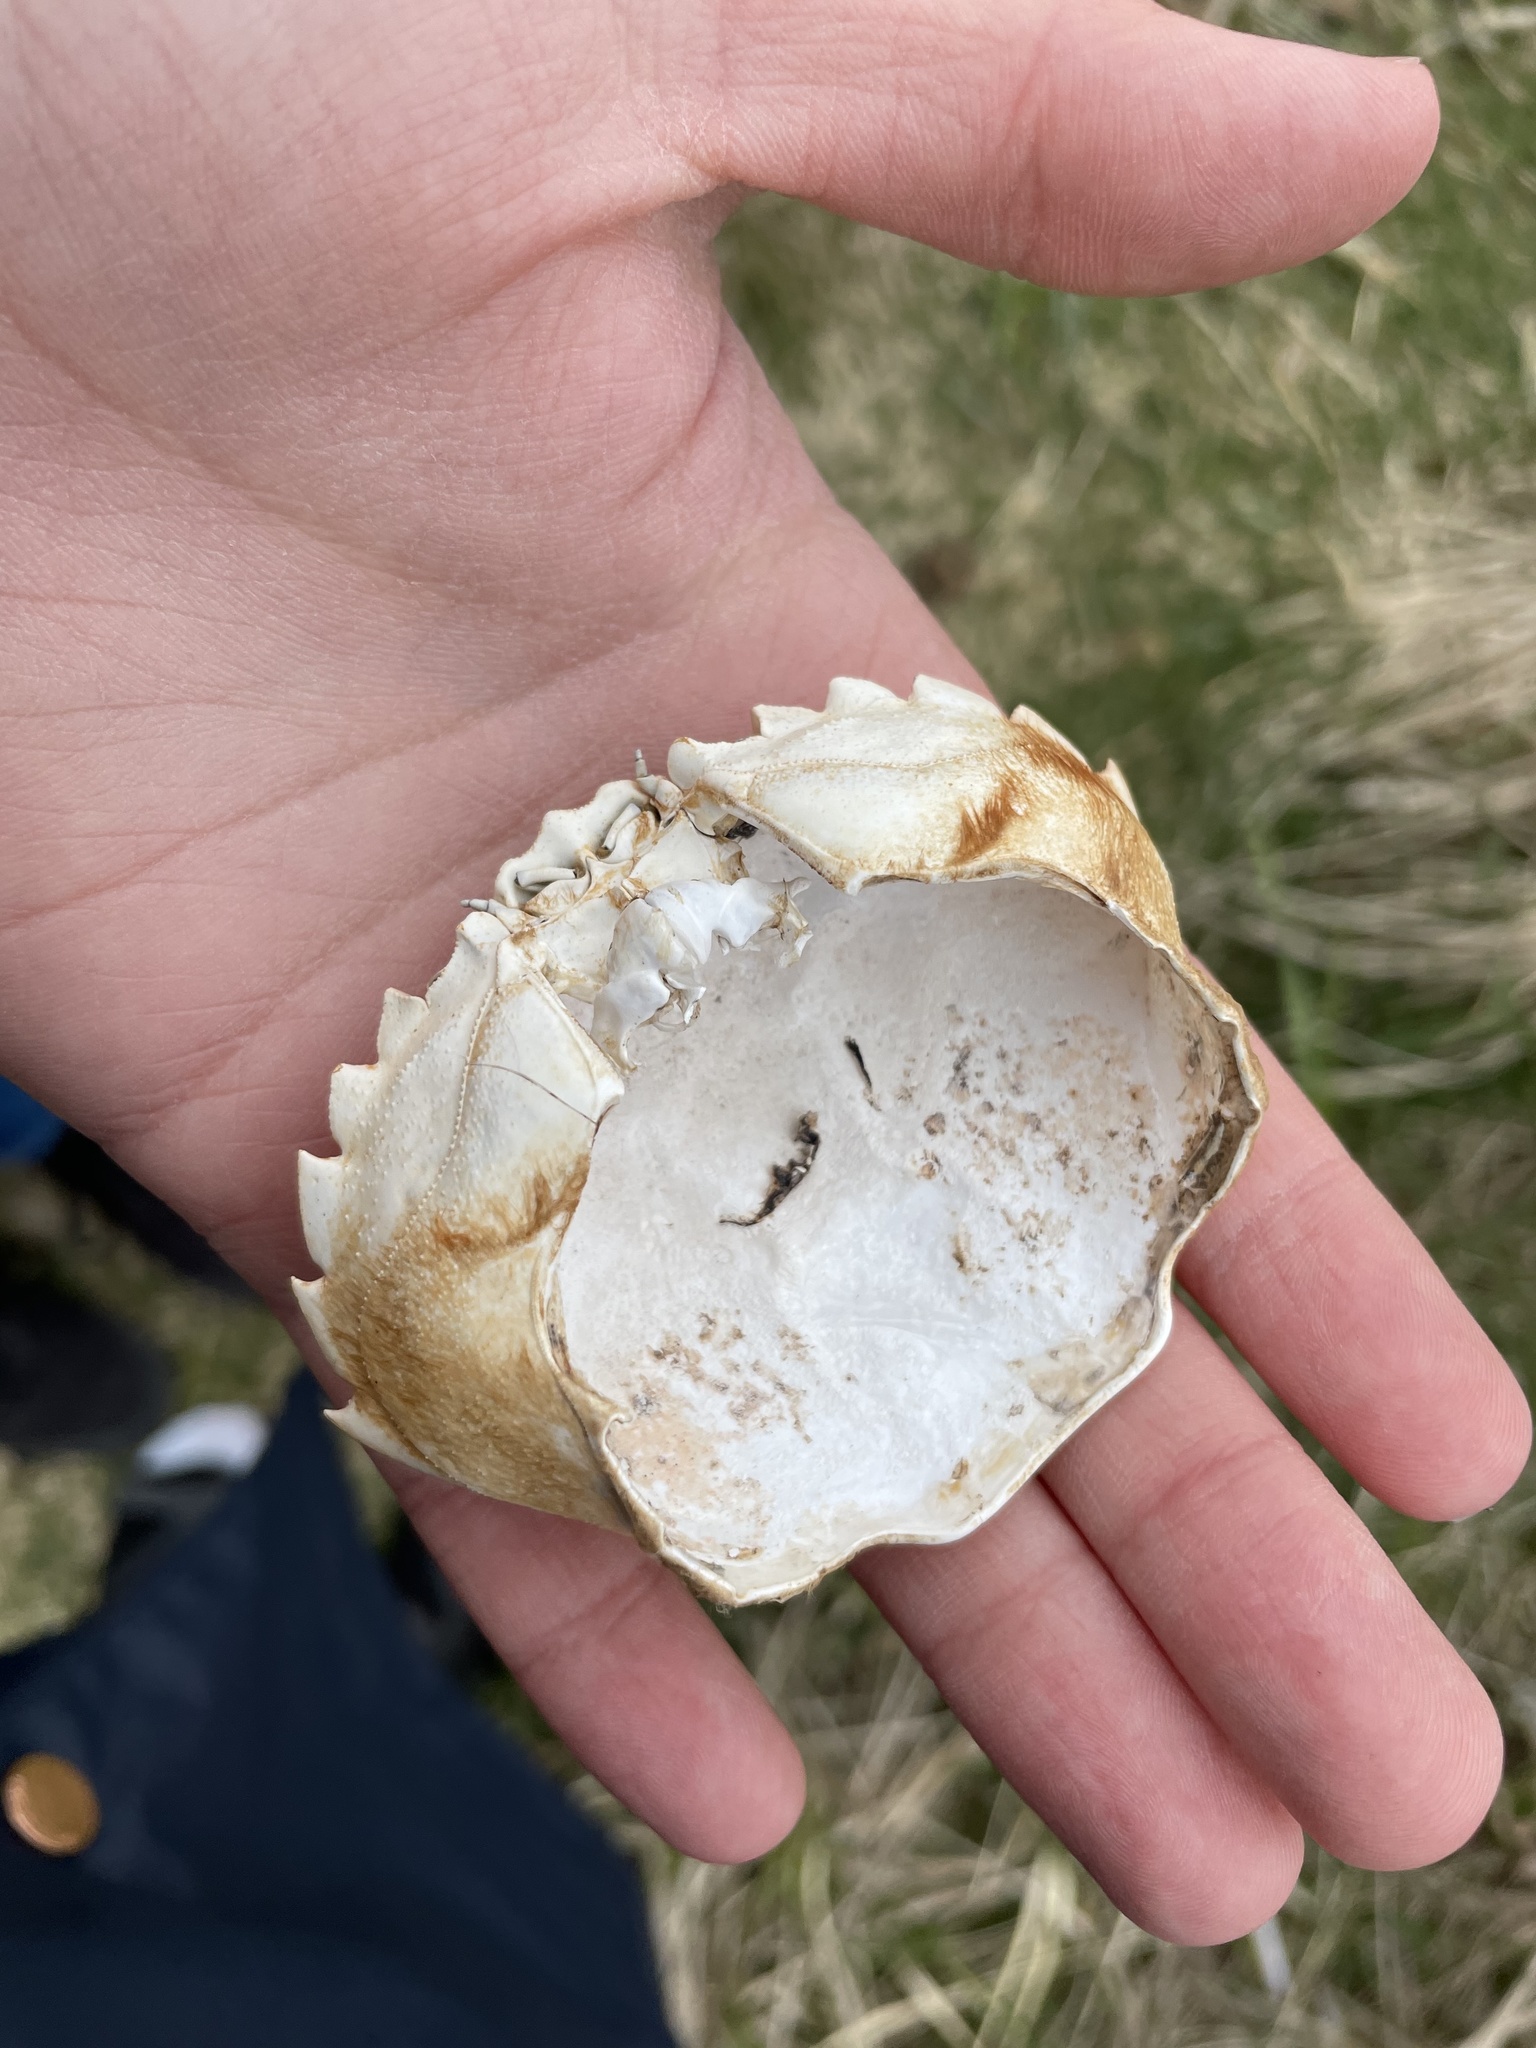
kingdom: Animalia
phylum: Arthropoda
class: Malacostraca
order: Decapoda
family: Carcinidae
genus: Carcinus
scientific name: Carcinus maenas
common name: European green crab
